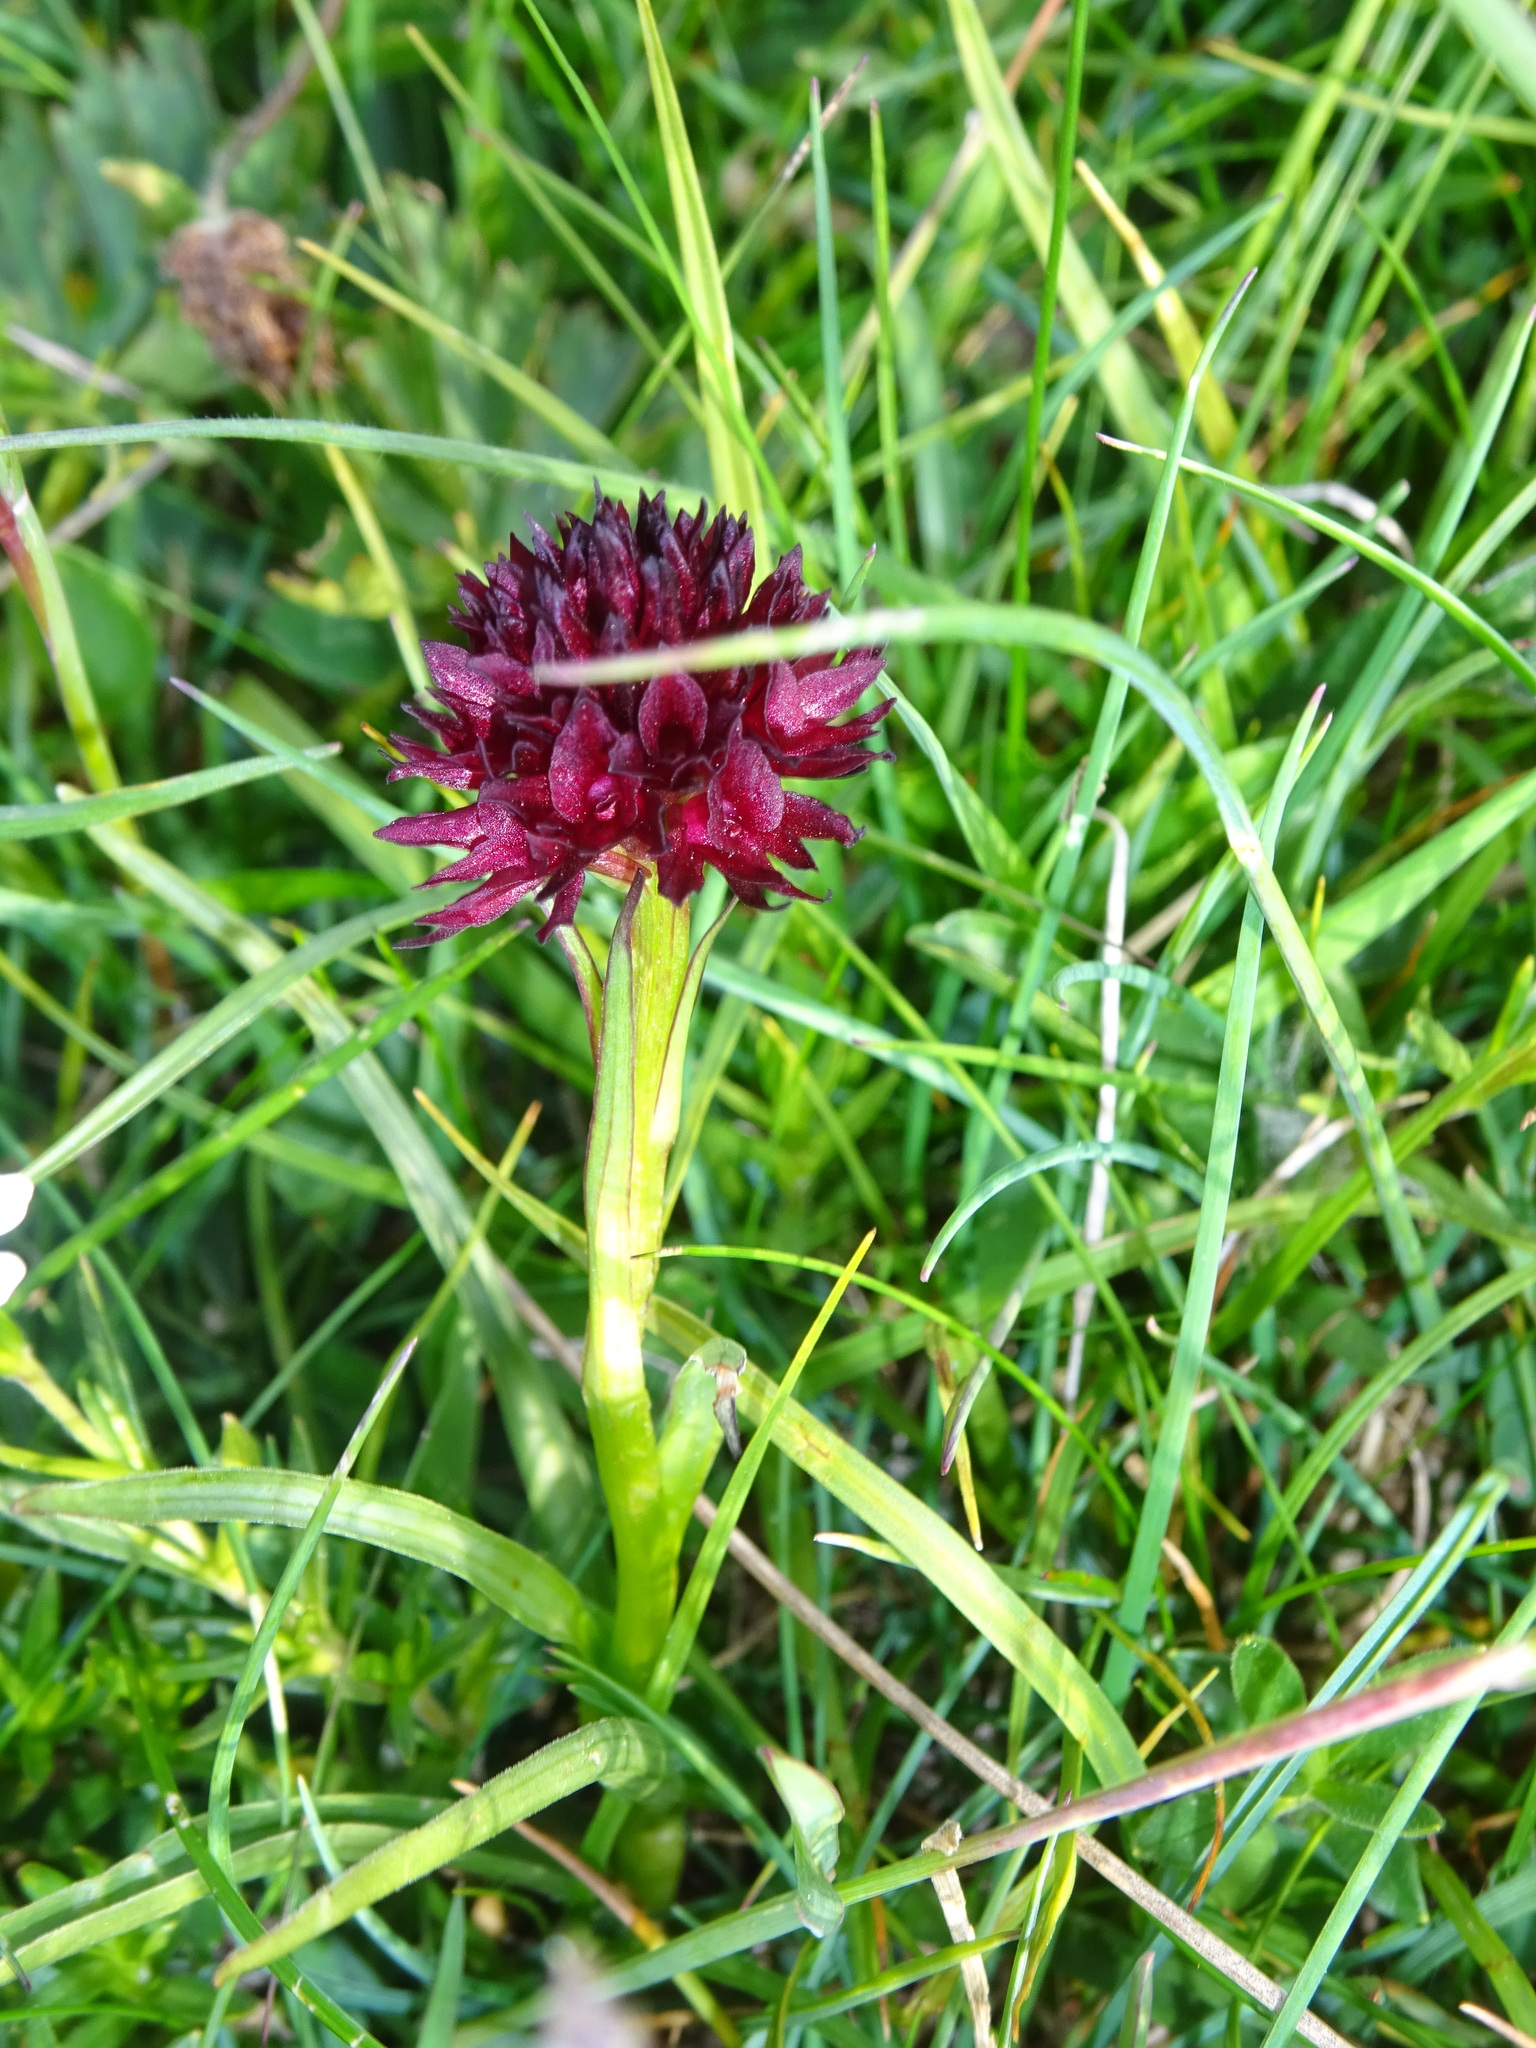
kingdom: Plantae
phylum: Tracheophyta
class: Liliopsida
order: Asparagales
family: Orchidaceae
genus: Gymnadenia
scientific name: Gymnadenia austriaca
